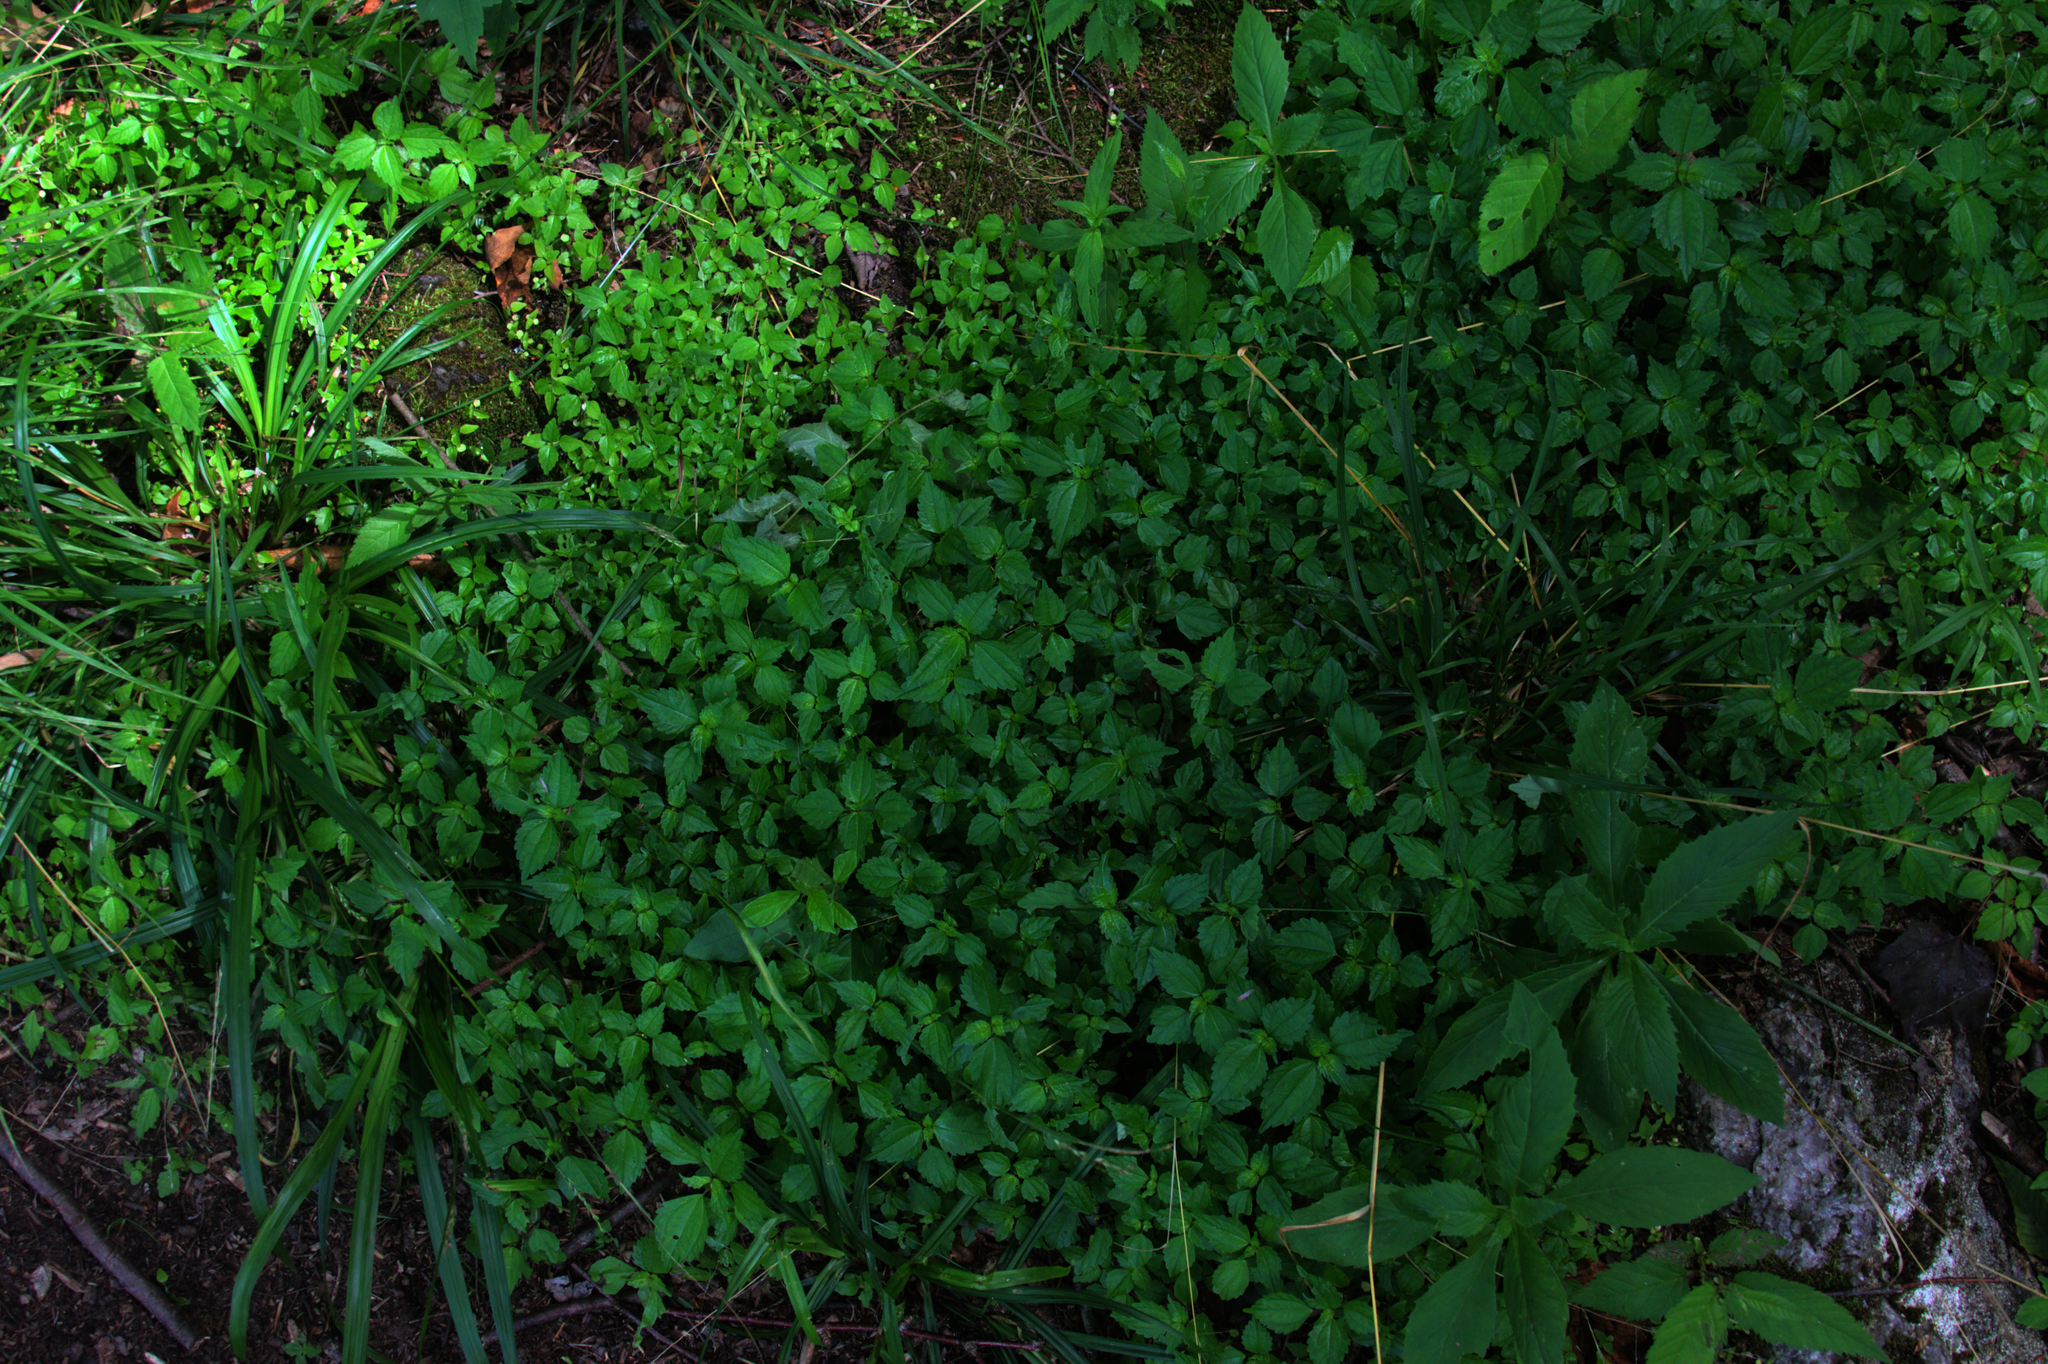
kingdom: Plantae
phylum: Tracheophyta
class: Magnoliopsida
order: Rosales
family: Urticaceae
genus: Pilea
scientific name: Pilea pumila
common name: Clearweed
